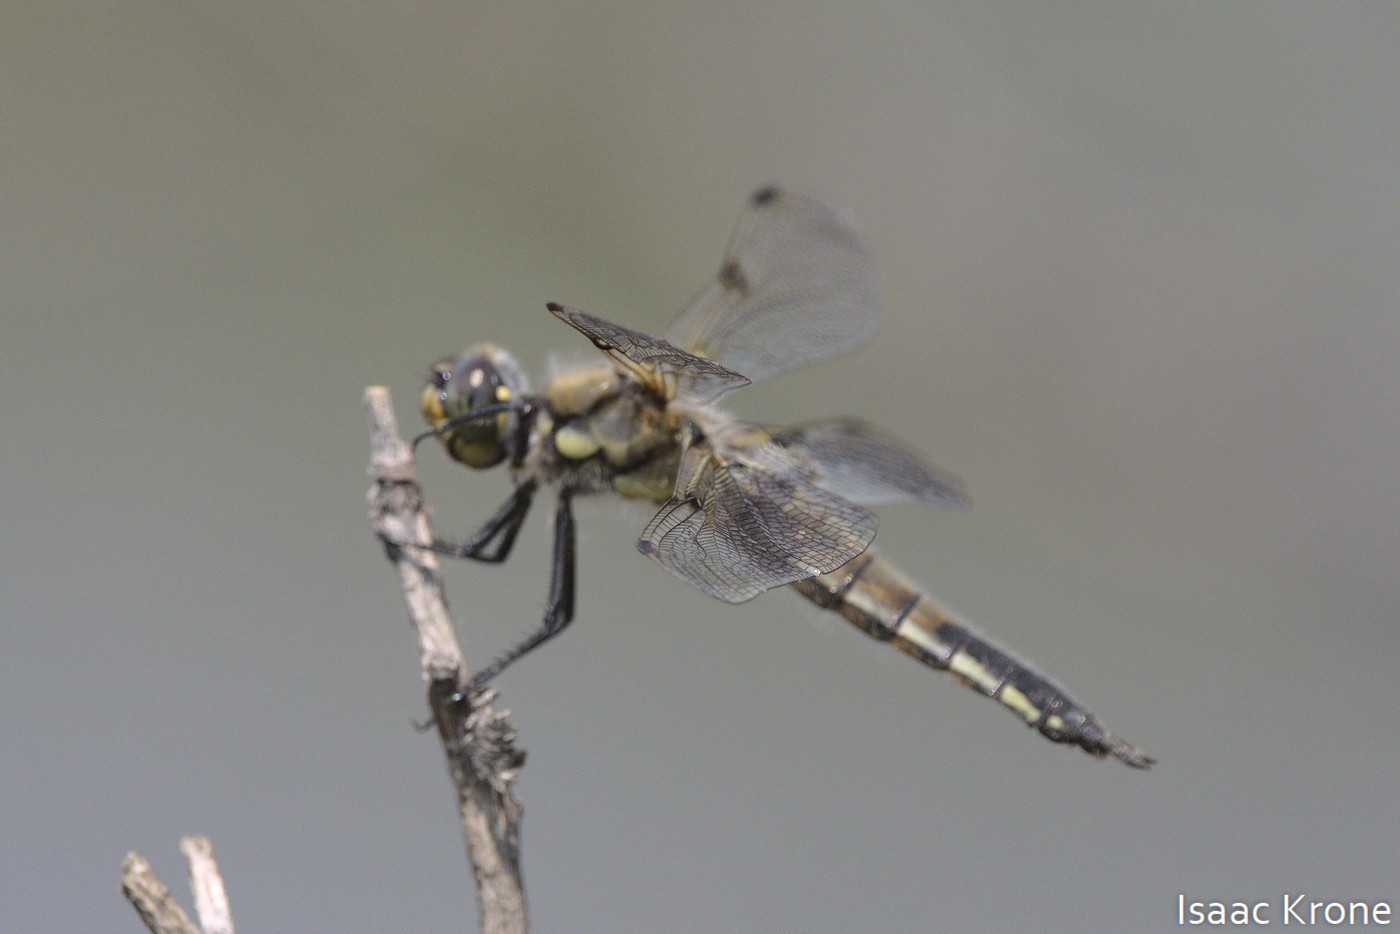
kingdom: Animalia
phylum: Arthropoda
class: Insecta
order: Odonata
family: Libellulidae
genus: Libellula
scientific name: Libellula quadrimaculata
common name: Four-spotted chaser
